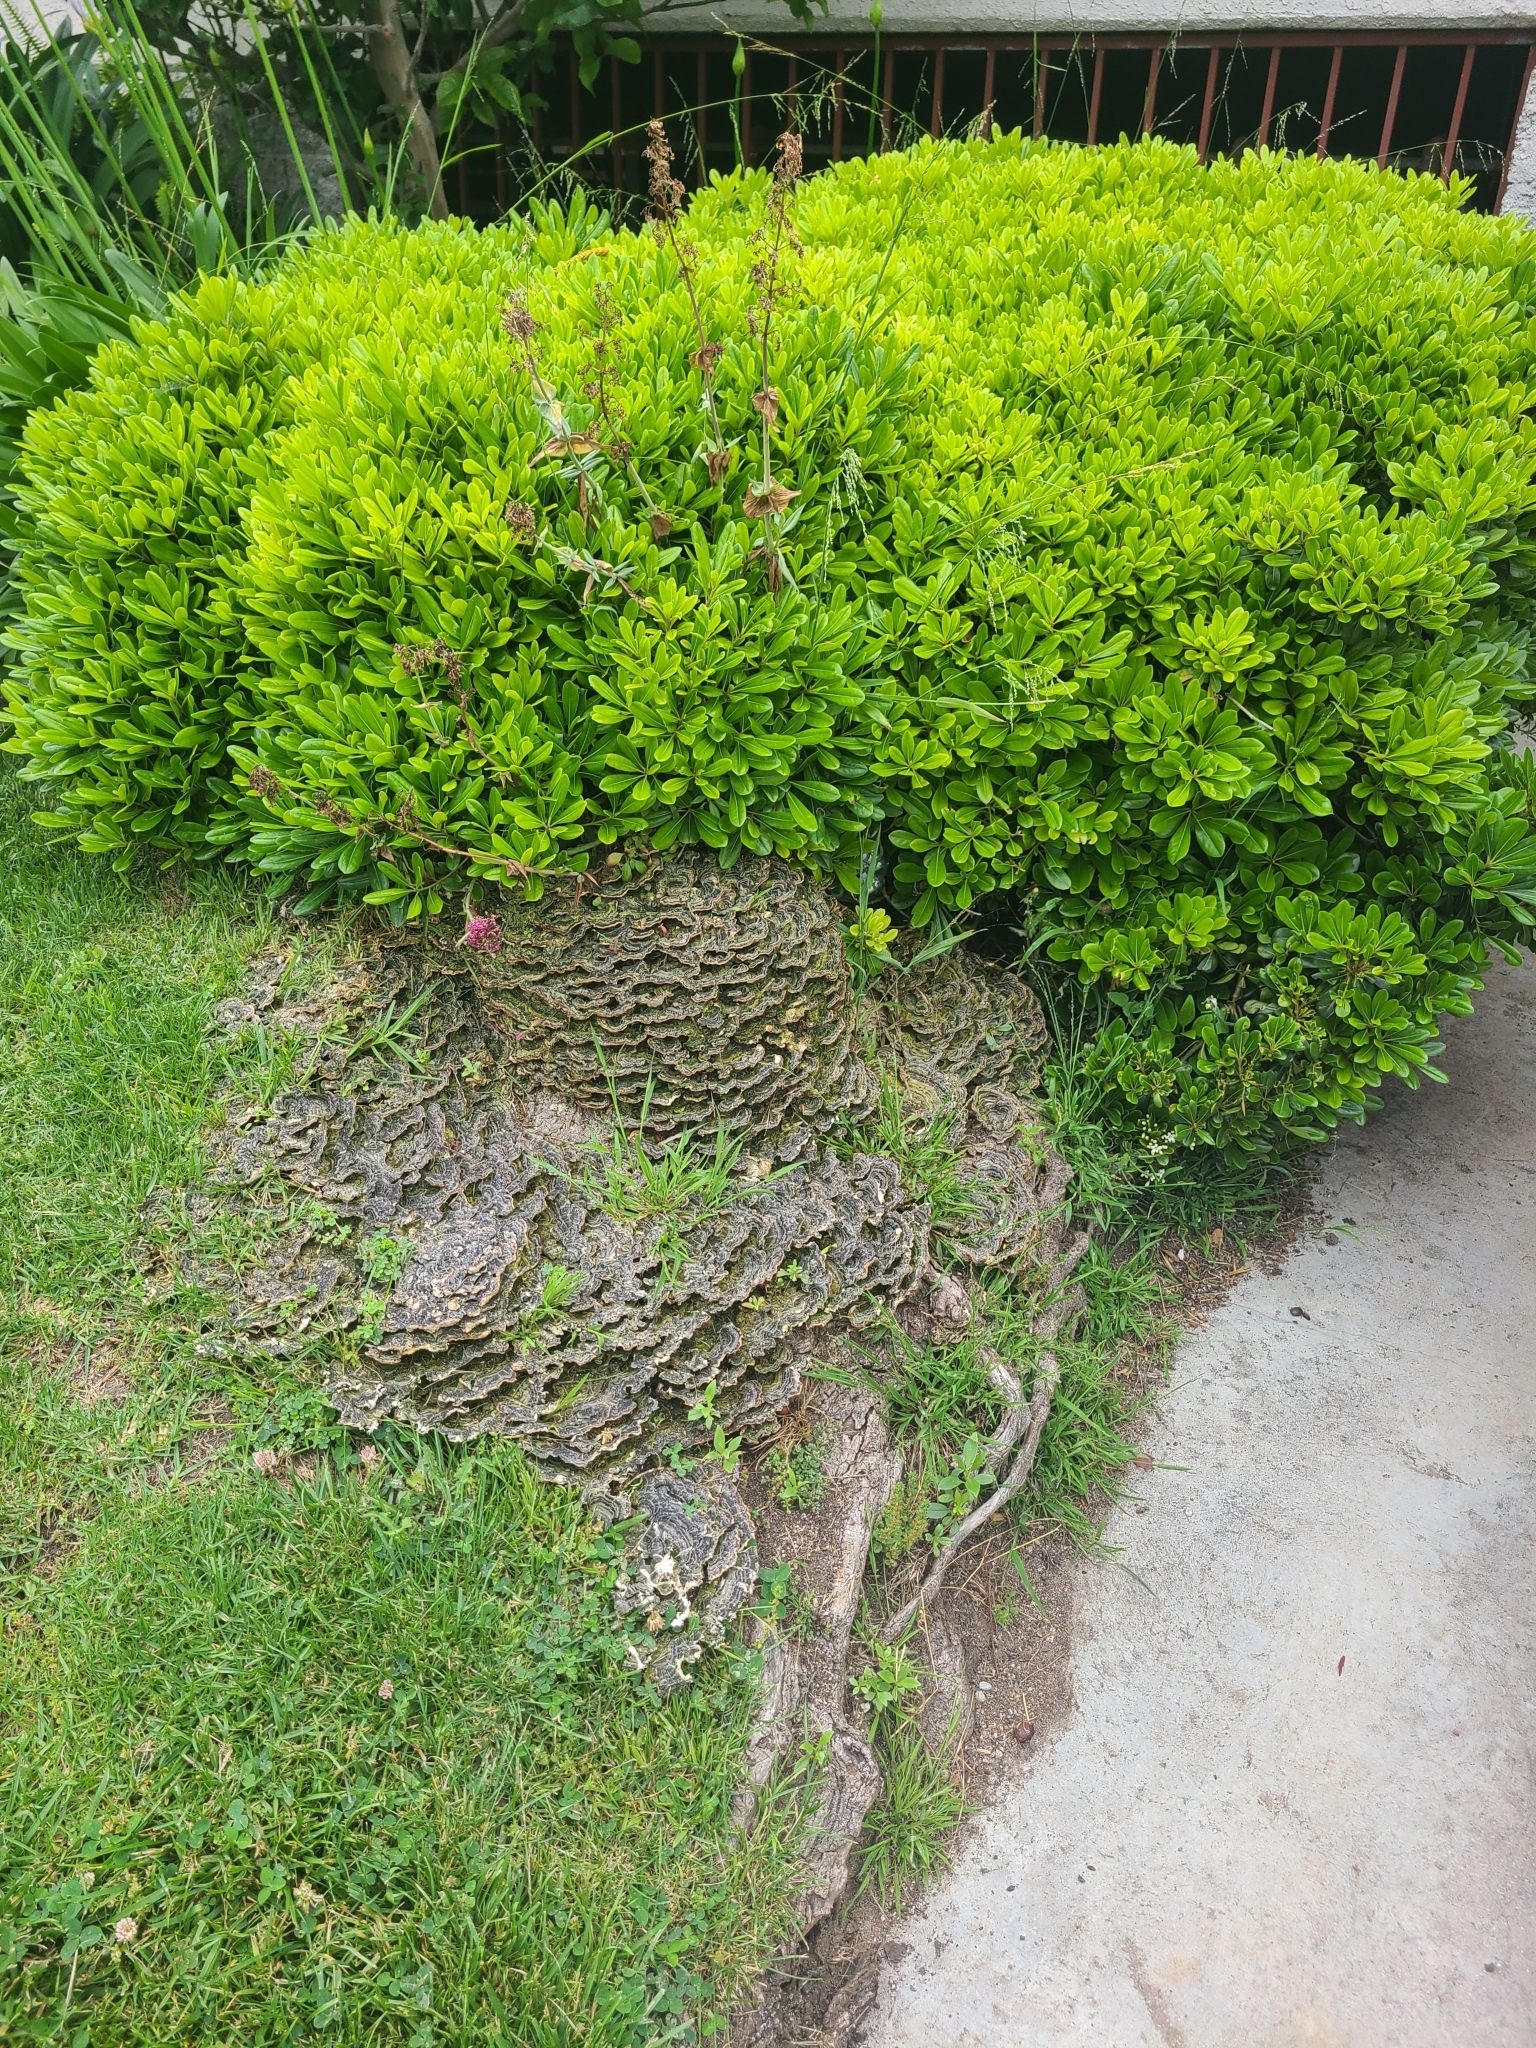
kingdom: Fungi
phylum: Basidiomycota
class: Agaricomycetes
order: Polyporales
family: Polyporaceae
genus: Trametes
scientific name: Trametes versicolor
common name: Turkeytail
